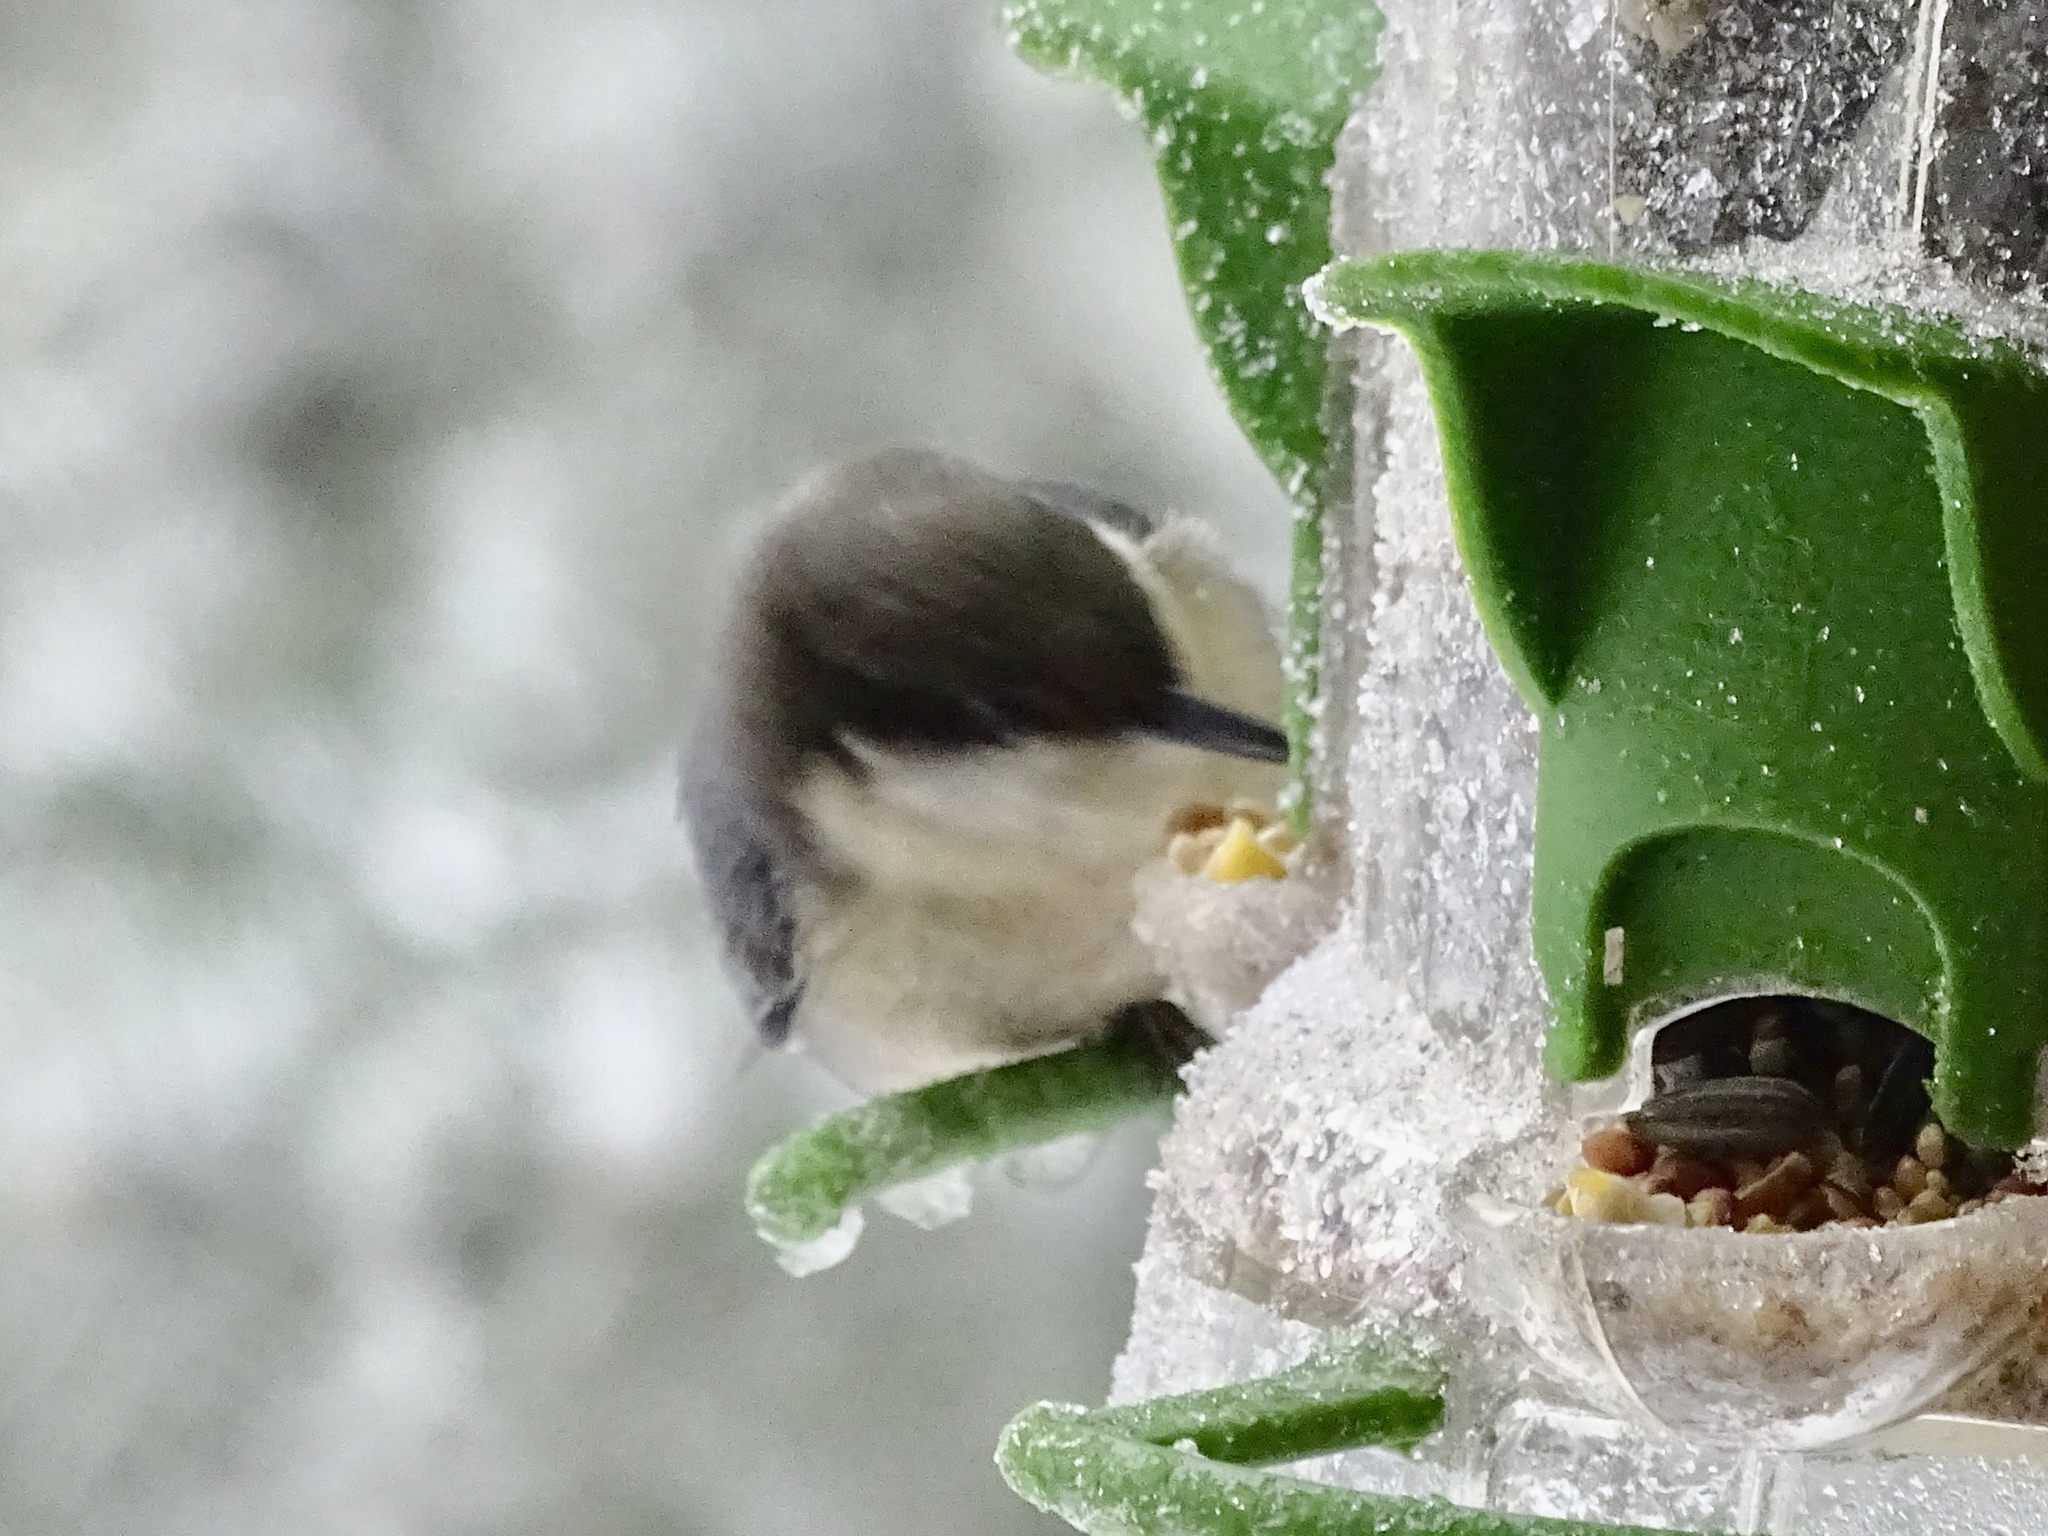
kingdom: Animalia
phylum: Chordata
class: Aves
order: Passeriformes
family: Sittidae
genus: Sitta
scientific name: Sitta pygmaea
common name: Pygmy nuthatch
